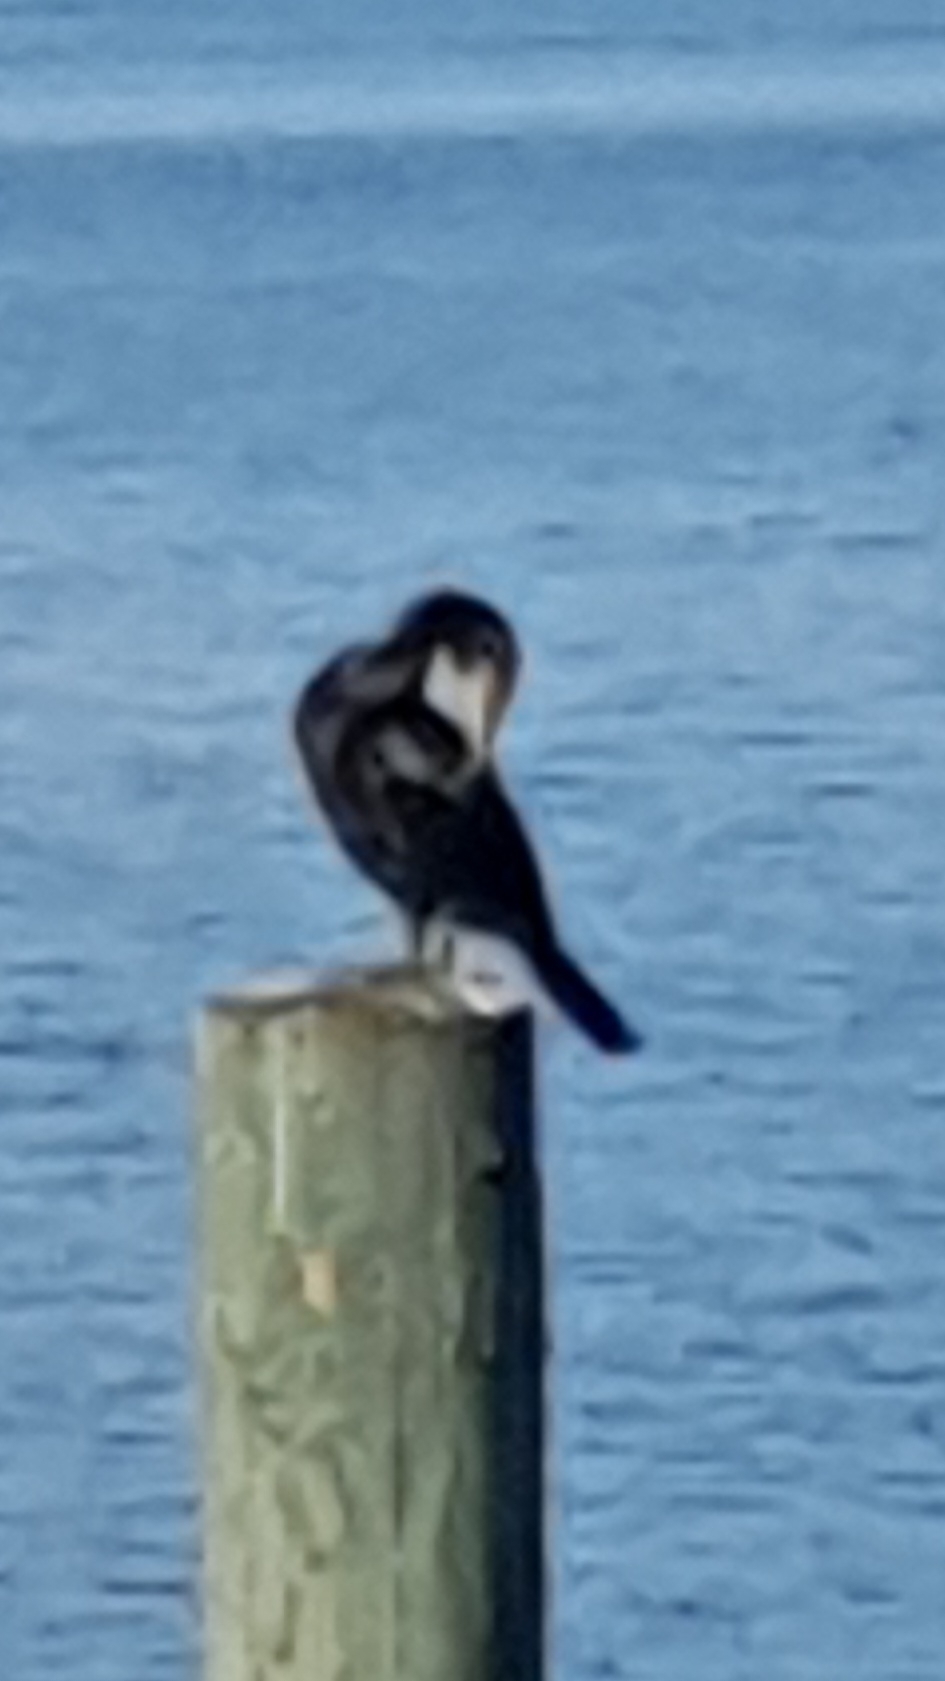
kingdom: Animalia
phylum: Chordata
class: Aves
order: Suliformes
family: Phalacrocoracidae
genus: Phalacrocorax
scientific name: Phalacrocorax carbo
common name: Great cormorant
